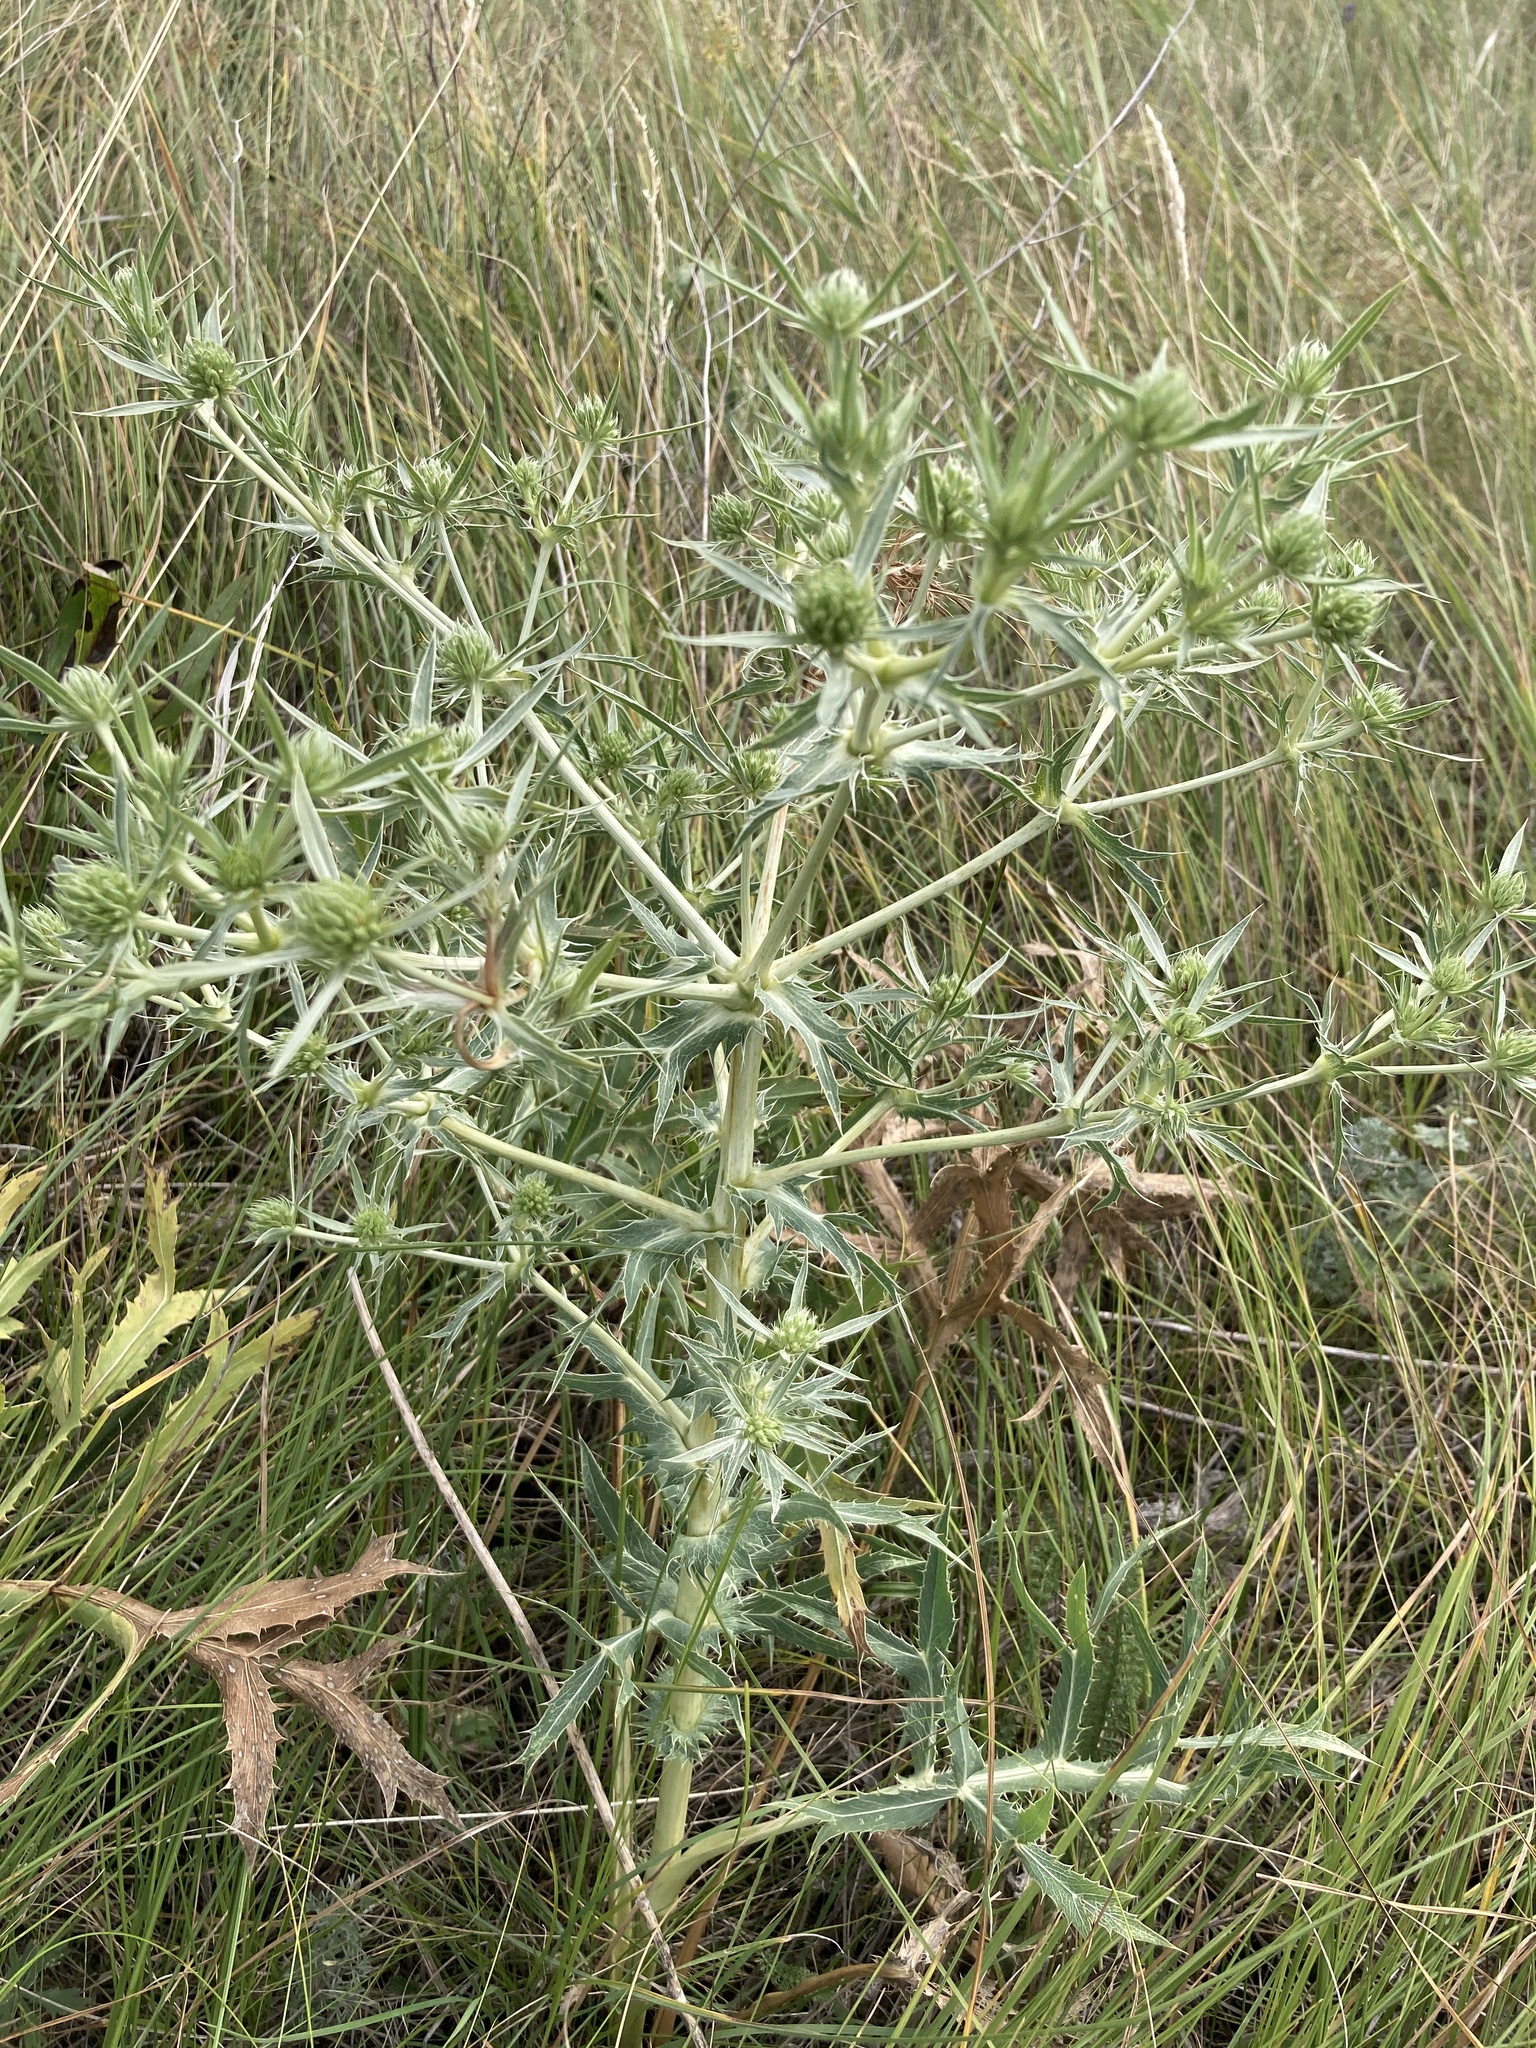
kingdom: Plantae
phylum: Tracheophyta
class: Magnoliopsida
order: Apiales
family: Apiaceae
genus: Eryngium
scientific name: Eryngium campestre
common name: Field eryngo
